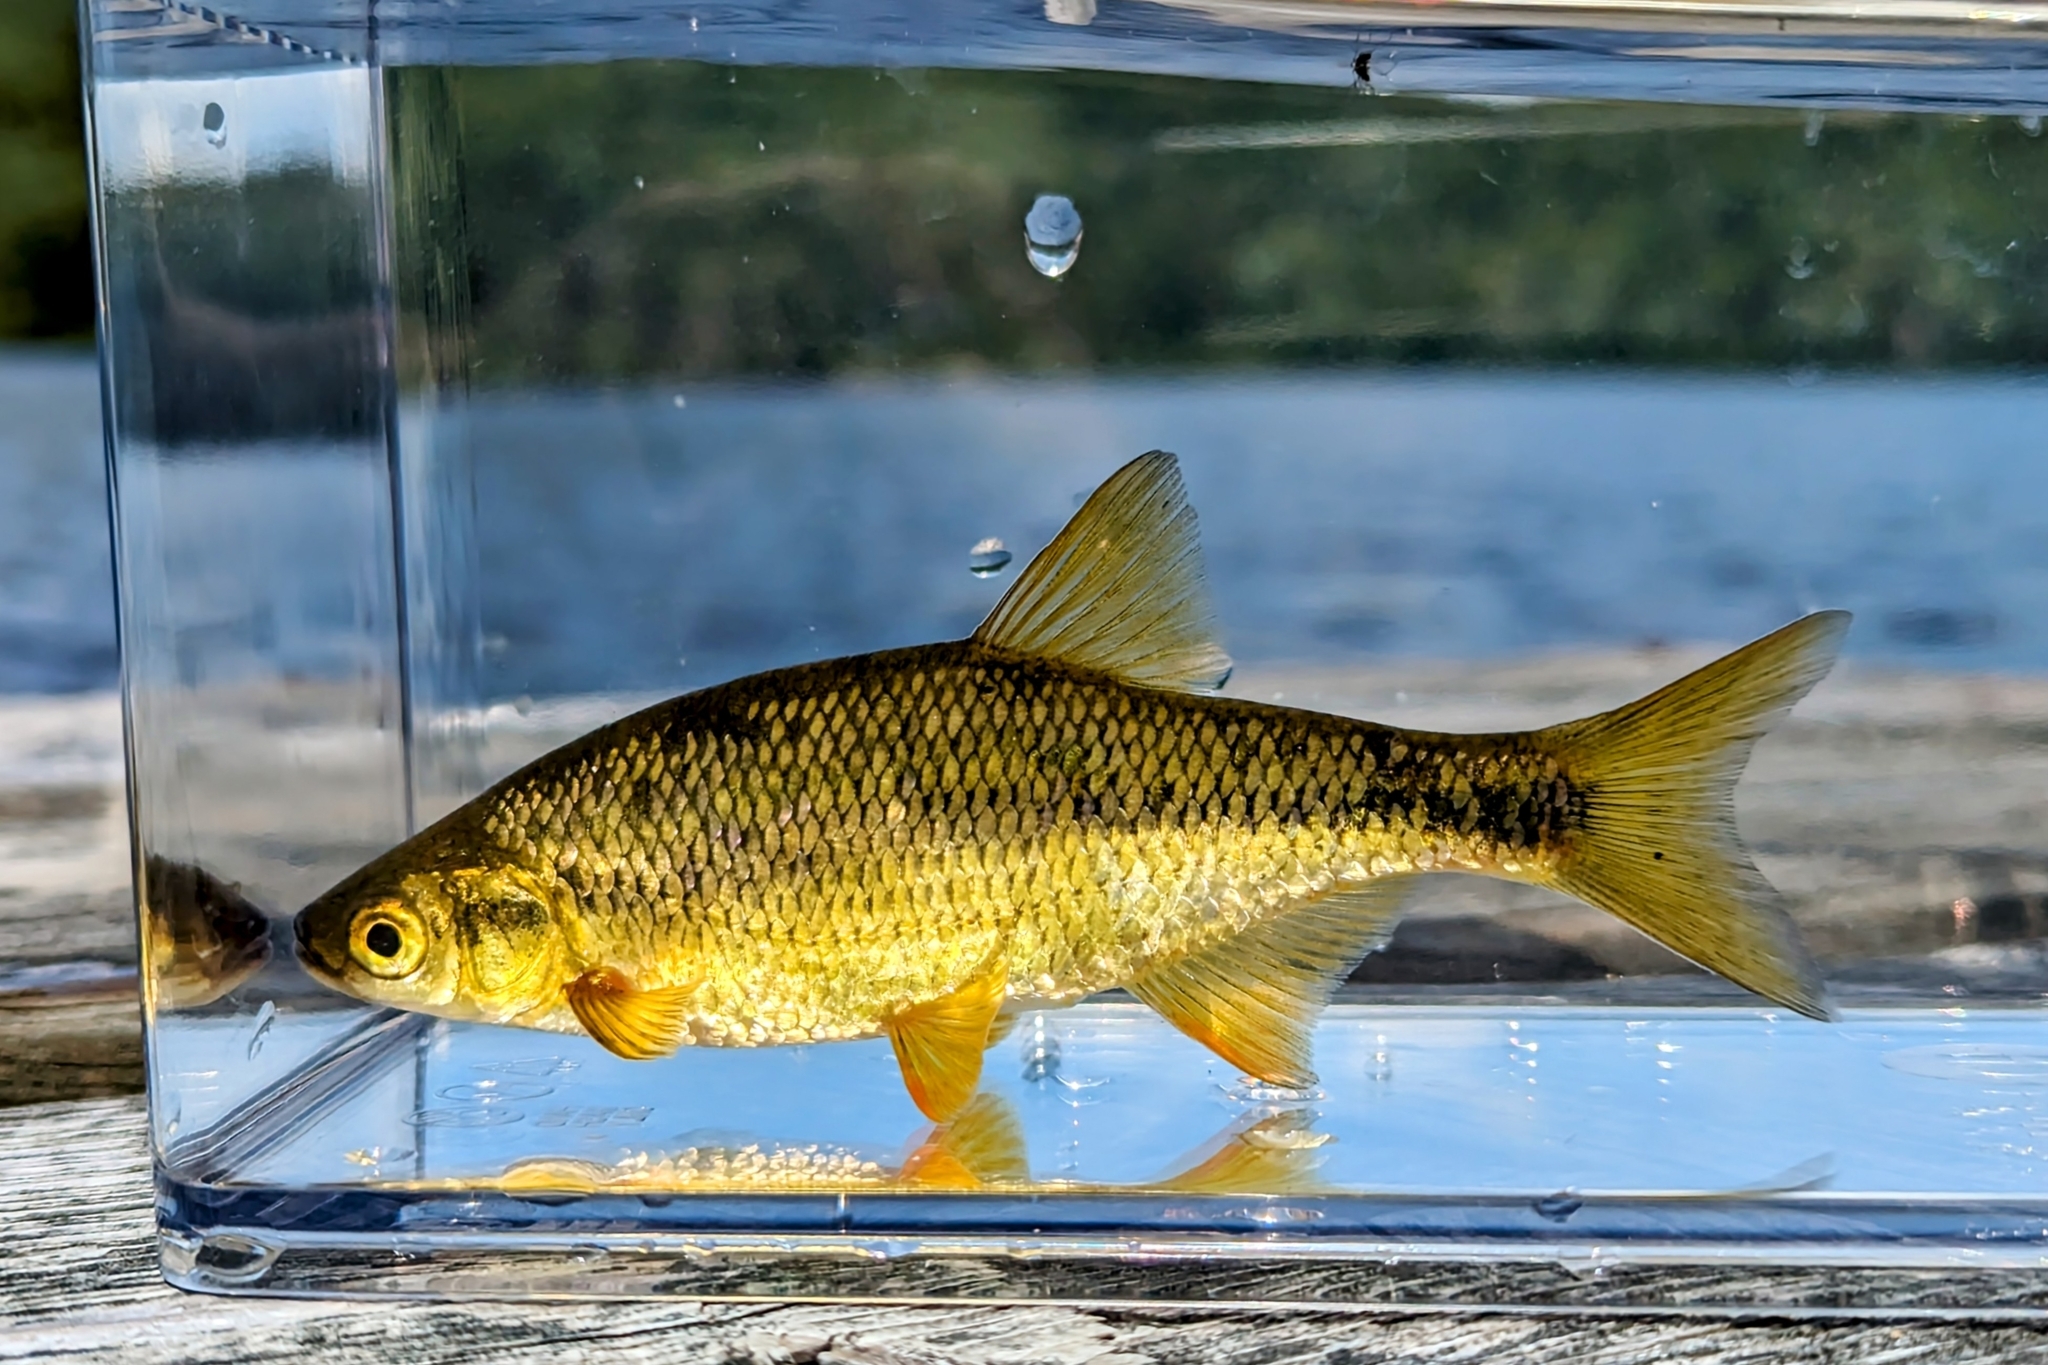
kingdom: Animalia
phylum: Chordata
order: Cypriniformes
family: Cyprinidae
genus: Notemigonus
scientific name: Notemigonus crysoleucas
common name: Golden shiner
